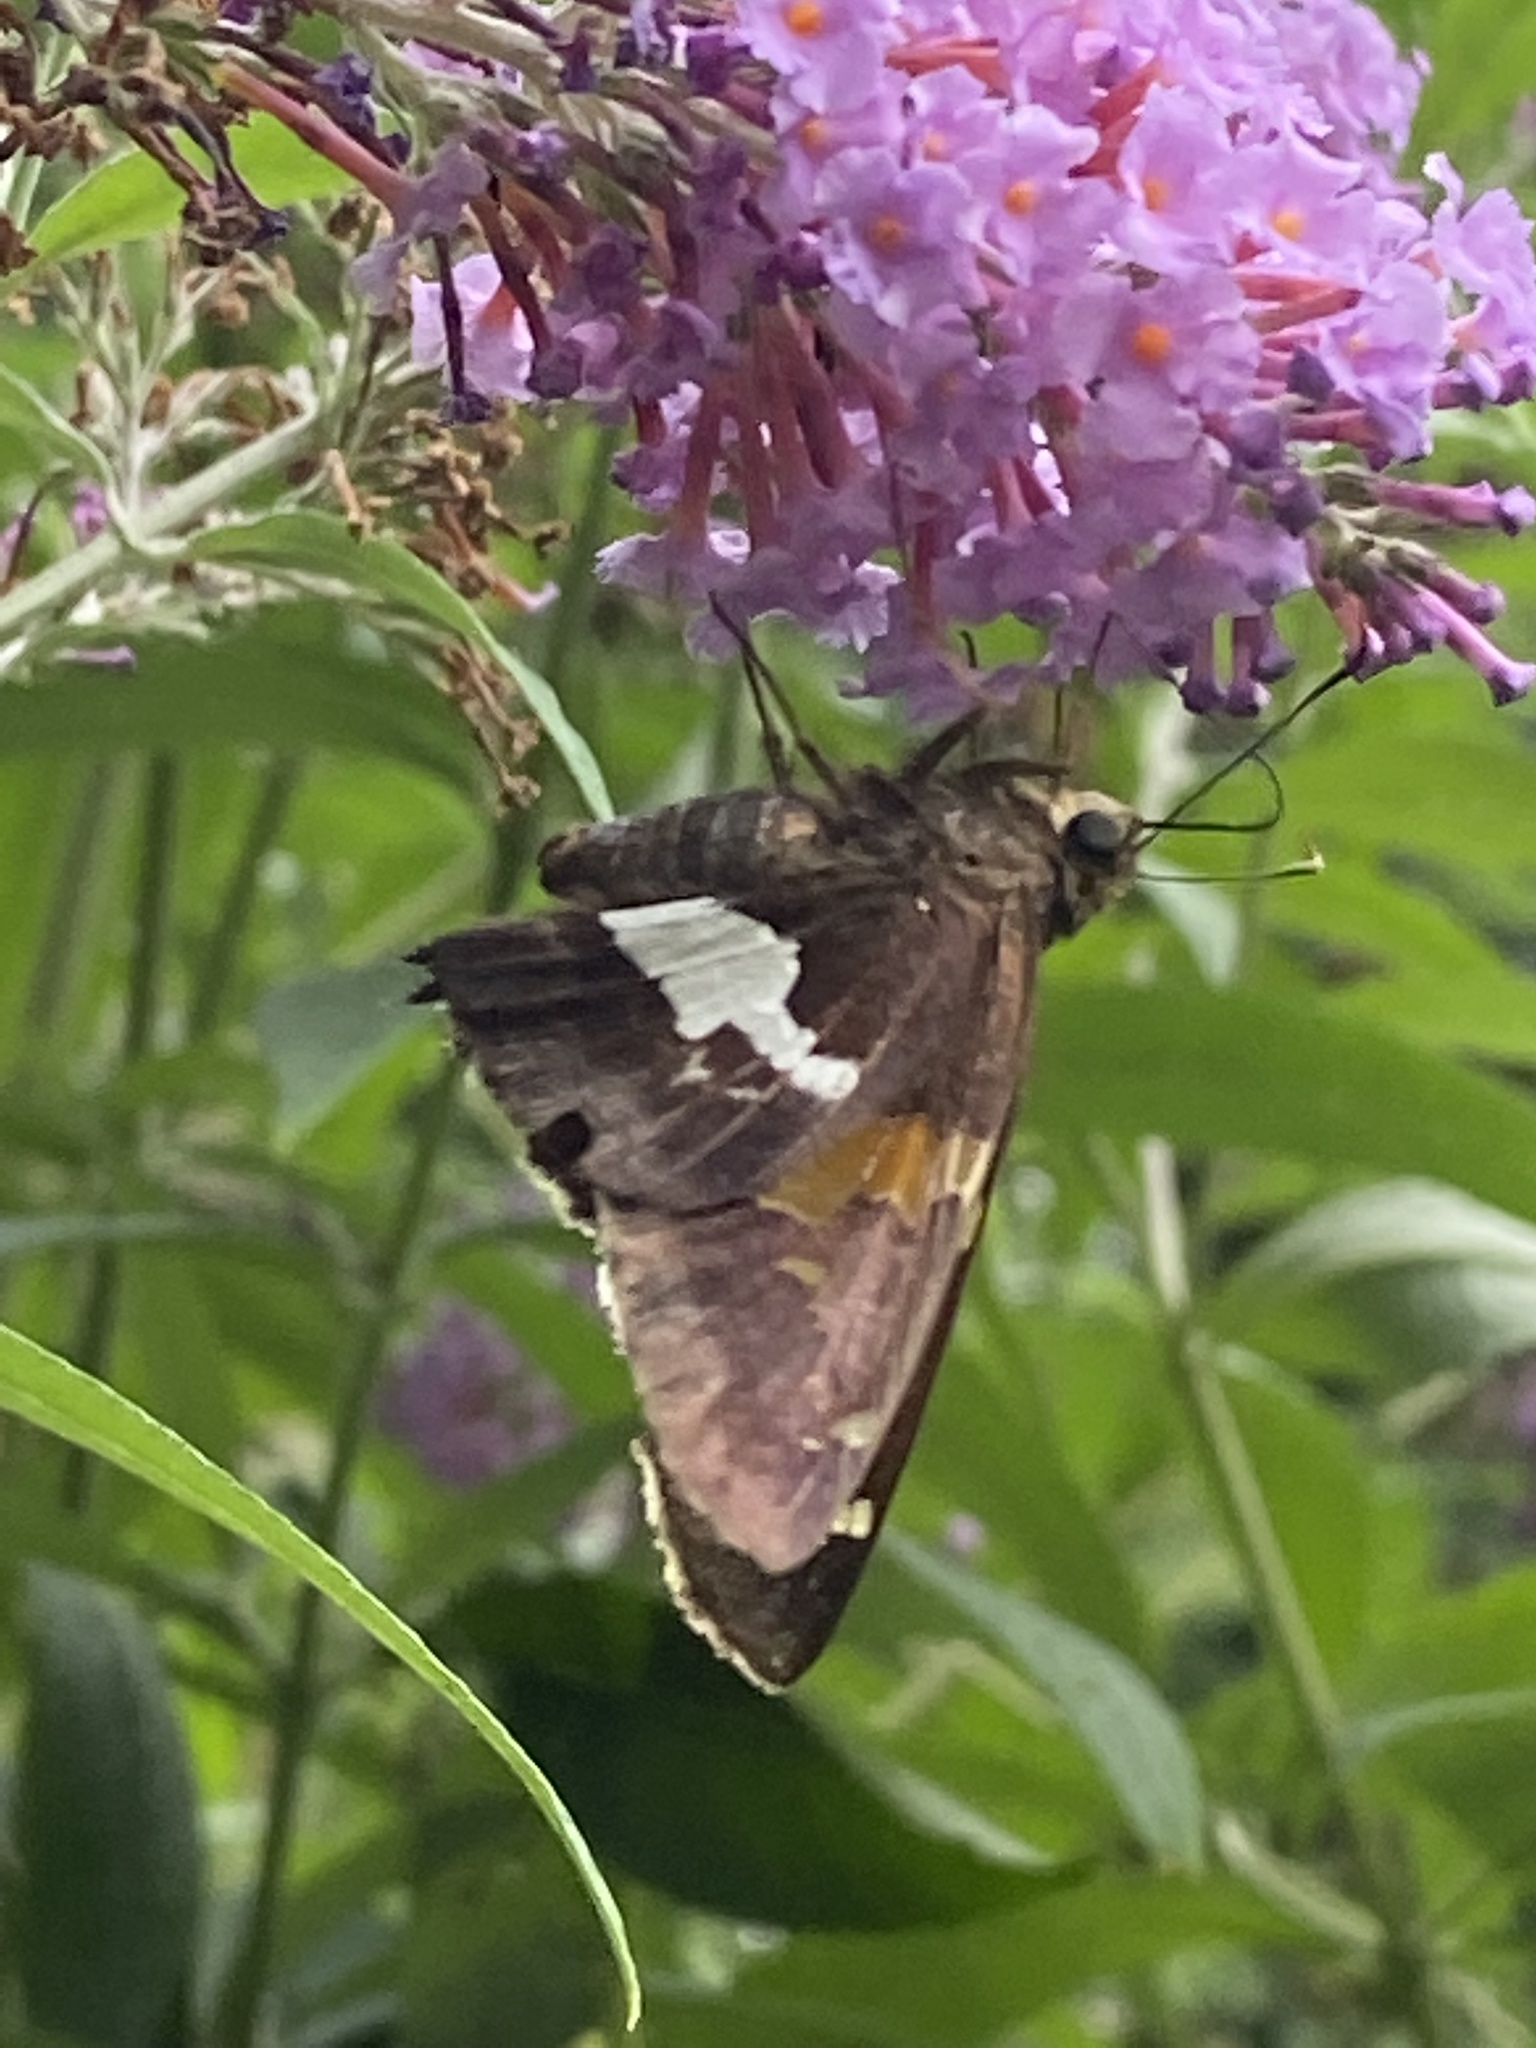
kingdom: Animalia
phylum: Arthropoda
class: Insecta
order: Lepidoptera
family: Hesperiidae
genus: Epargyreus
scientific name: Epargyreus clarus
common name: Silver-spotted skipper
